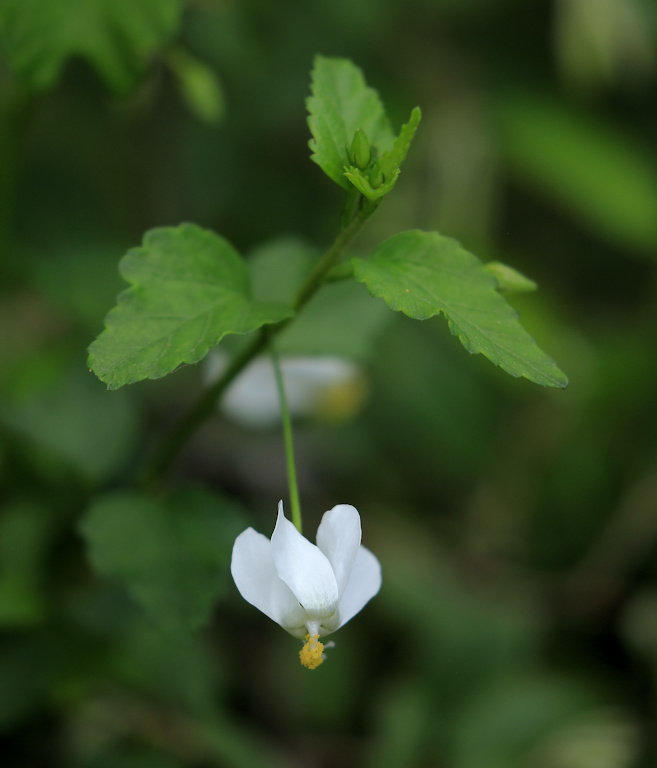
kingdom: Plantae
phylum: Tracheophyta
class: Magnoliopsida
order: Malvales
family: Malvaceae
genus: Hibiscus
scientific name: Hibiscus meyeri
